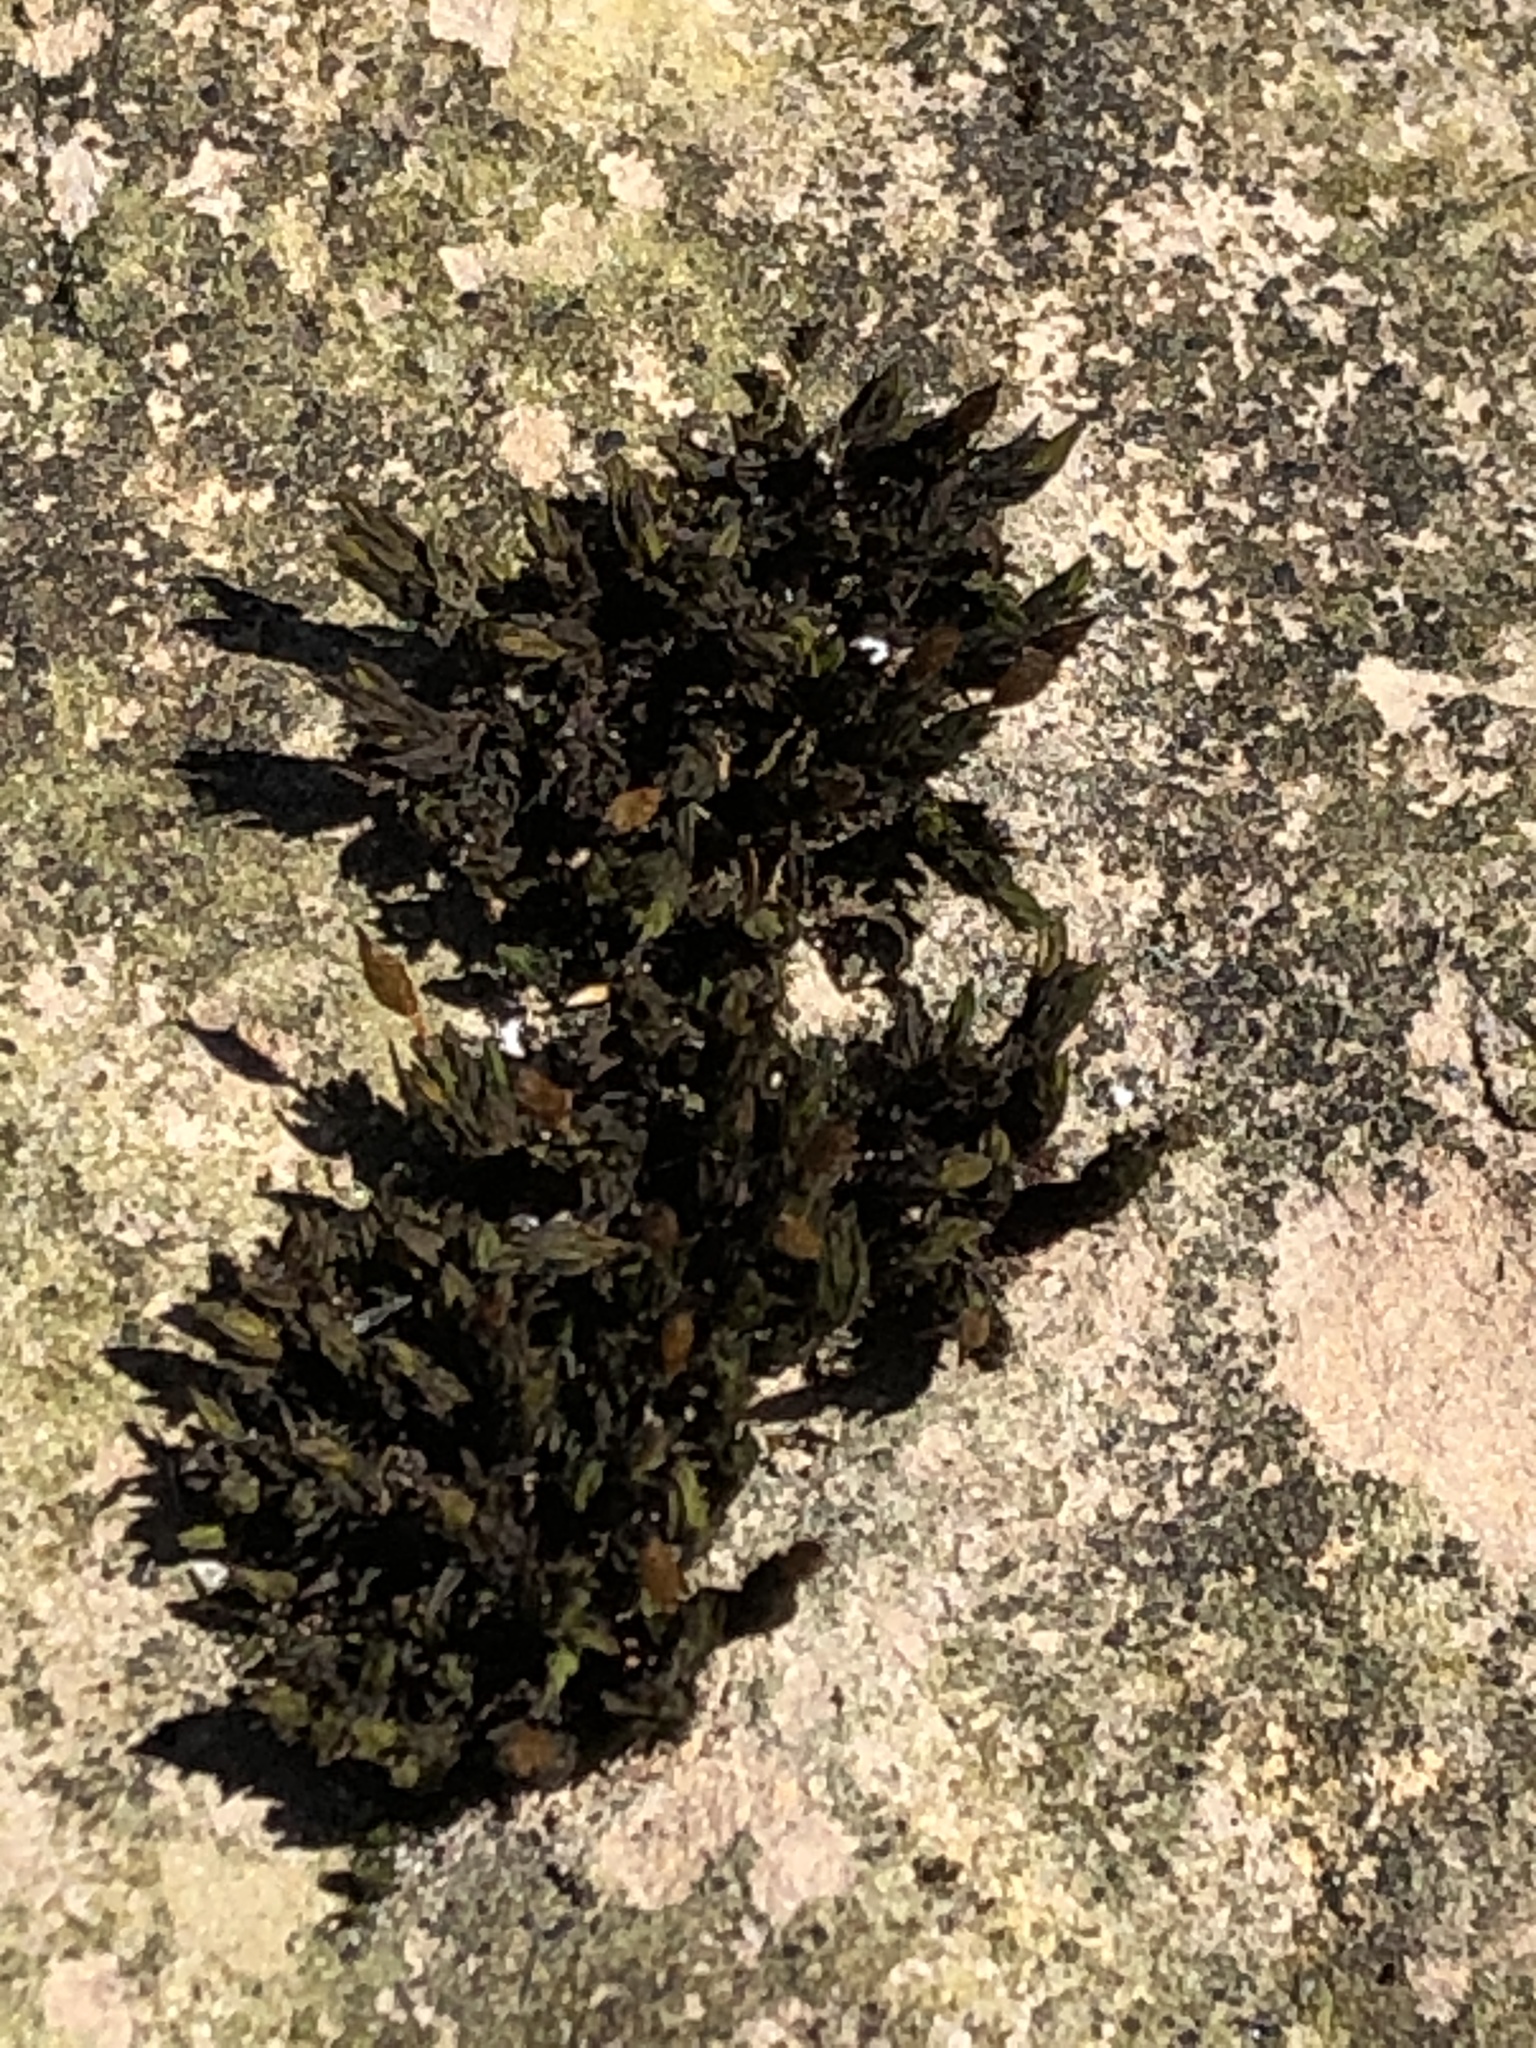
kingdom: Plantae
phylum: Bryophyta
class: Bryopsida
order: Orthotrichales
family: Orthotrichaceae
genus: Orthotrichum
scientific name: Orthotrichum anomalum
